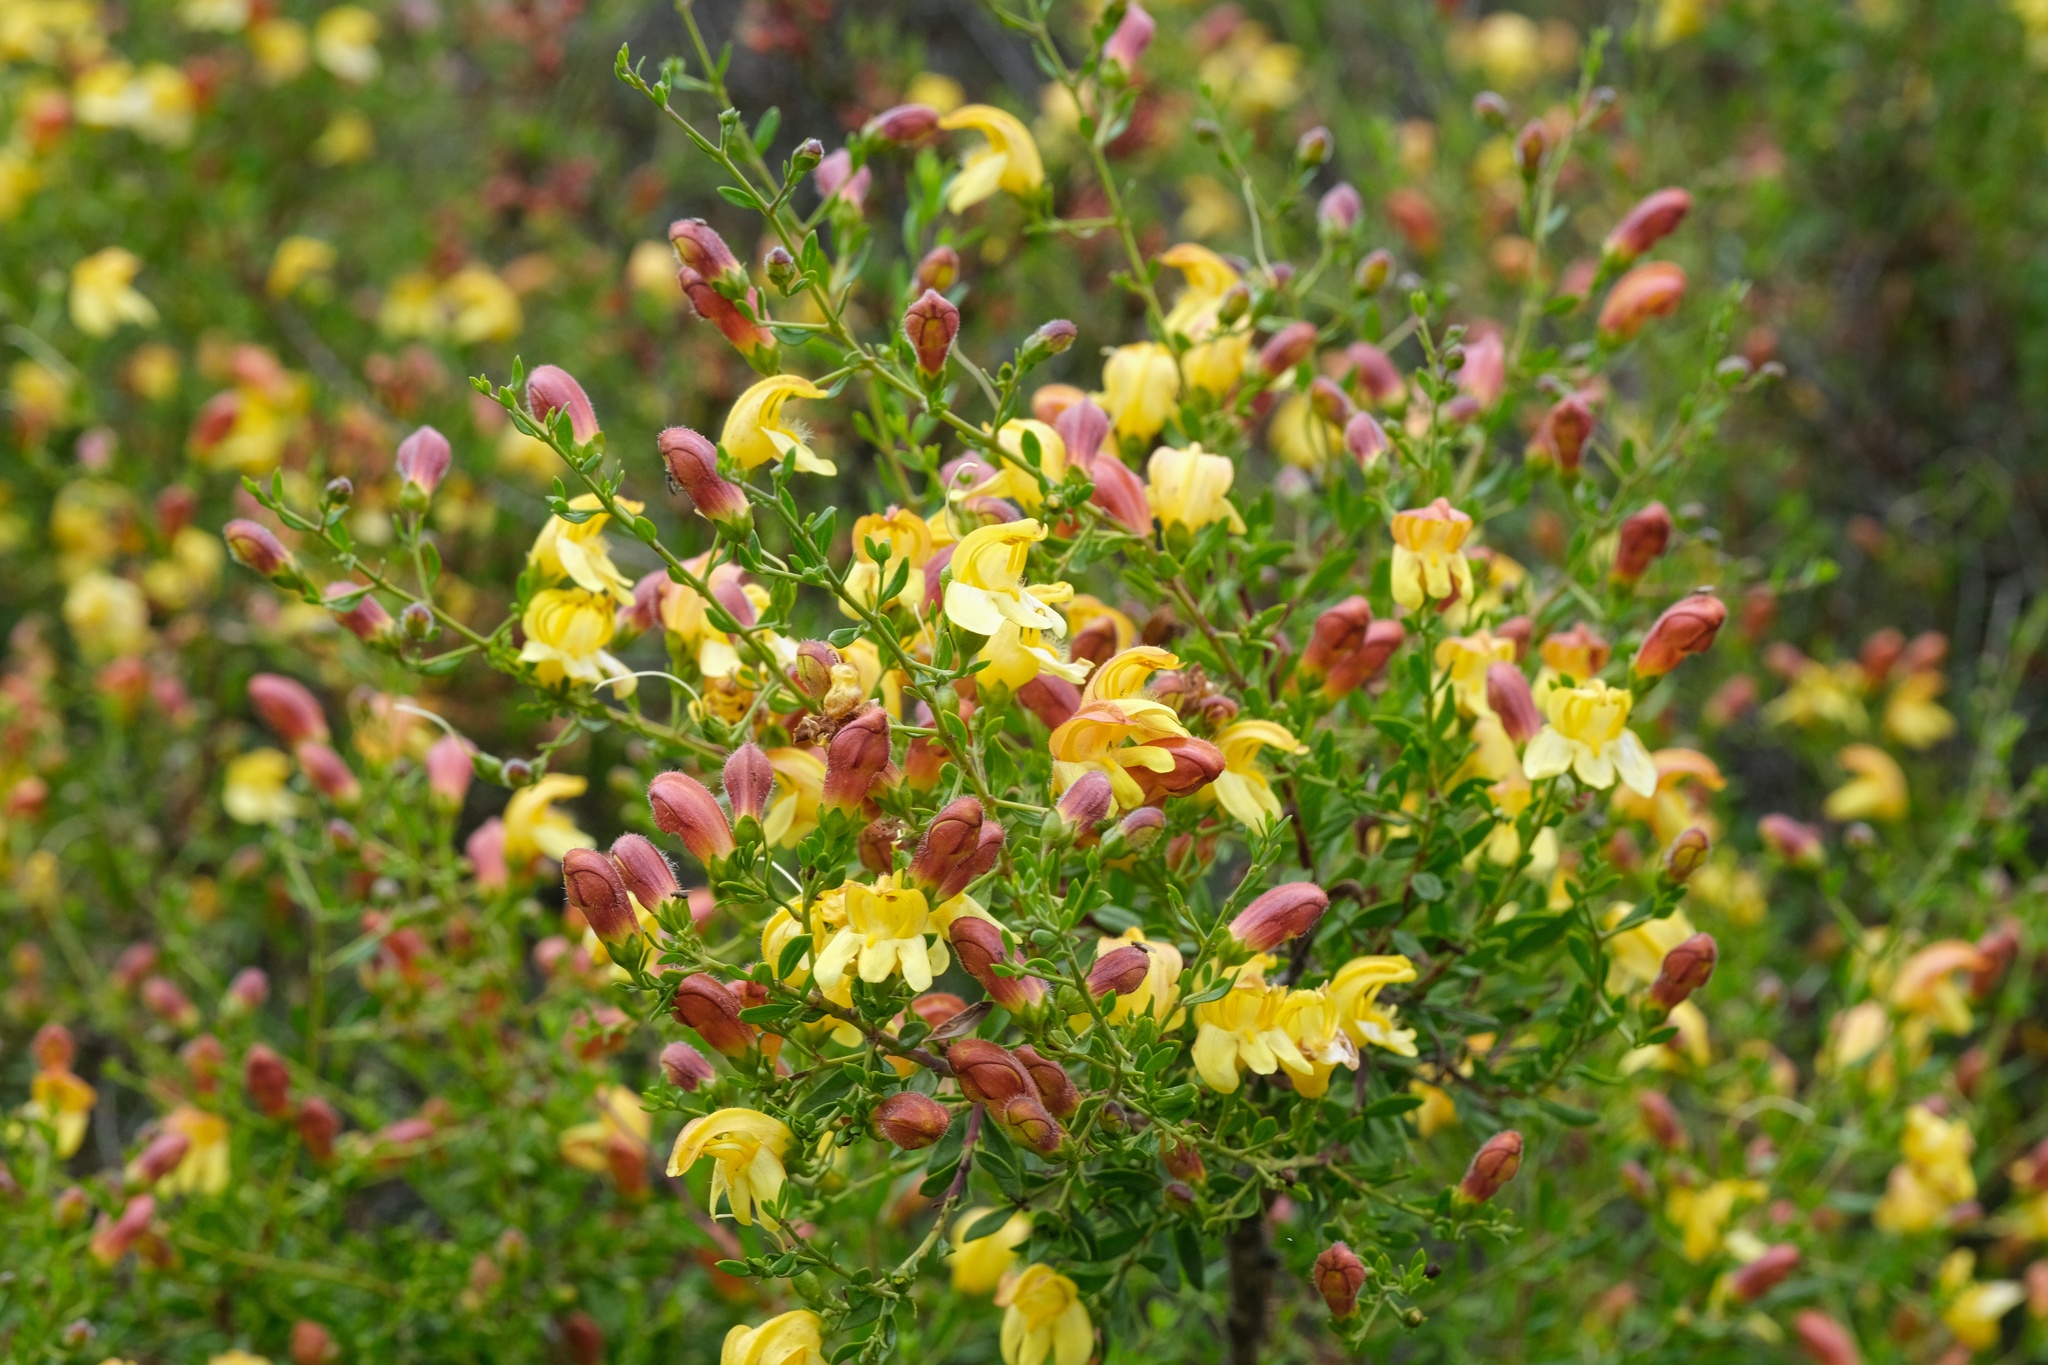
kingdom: Plantae
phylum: Tracheophyta
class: Magnoliopsida
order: Lamiales
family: Plantaginaceae
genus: Keckiella
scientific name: Keckiella antirrhinoides
